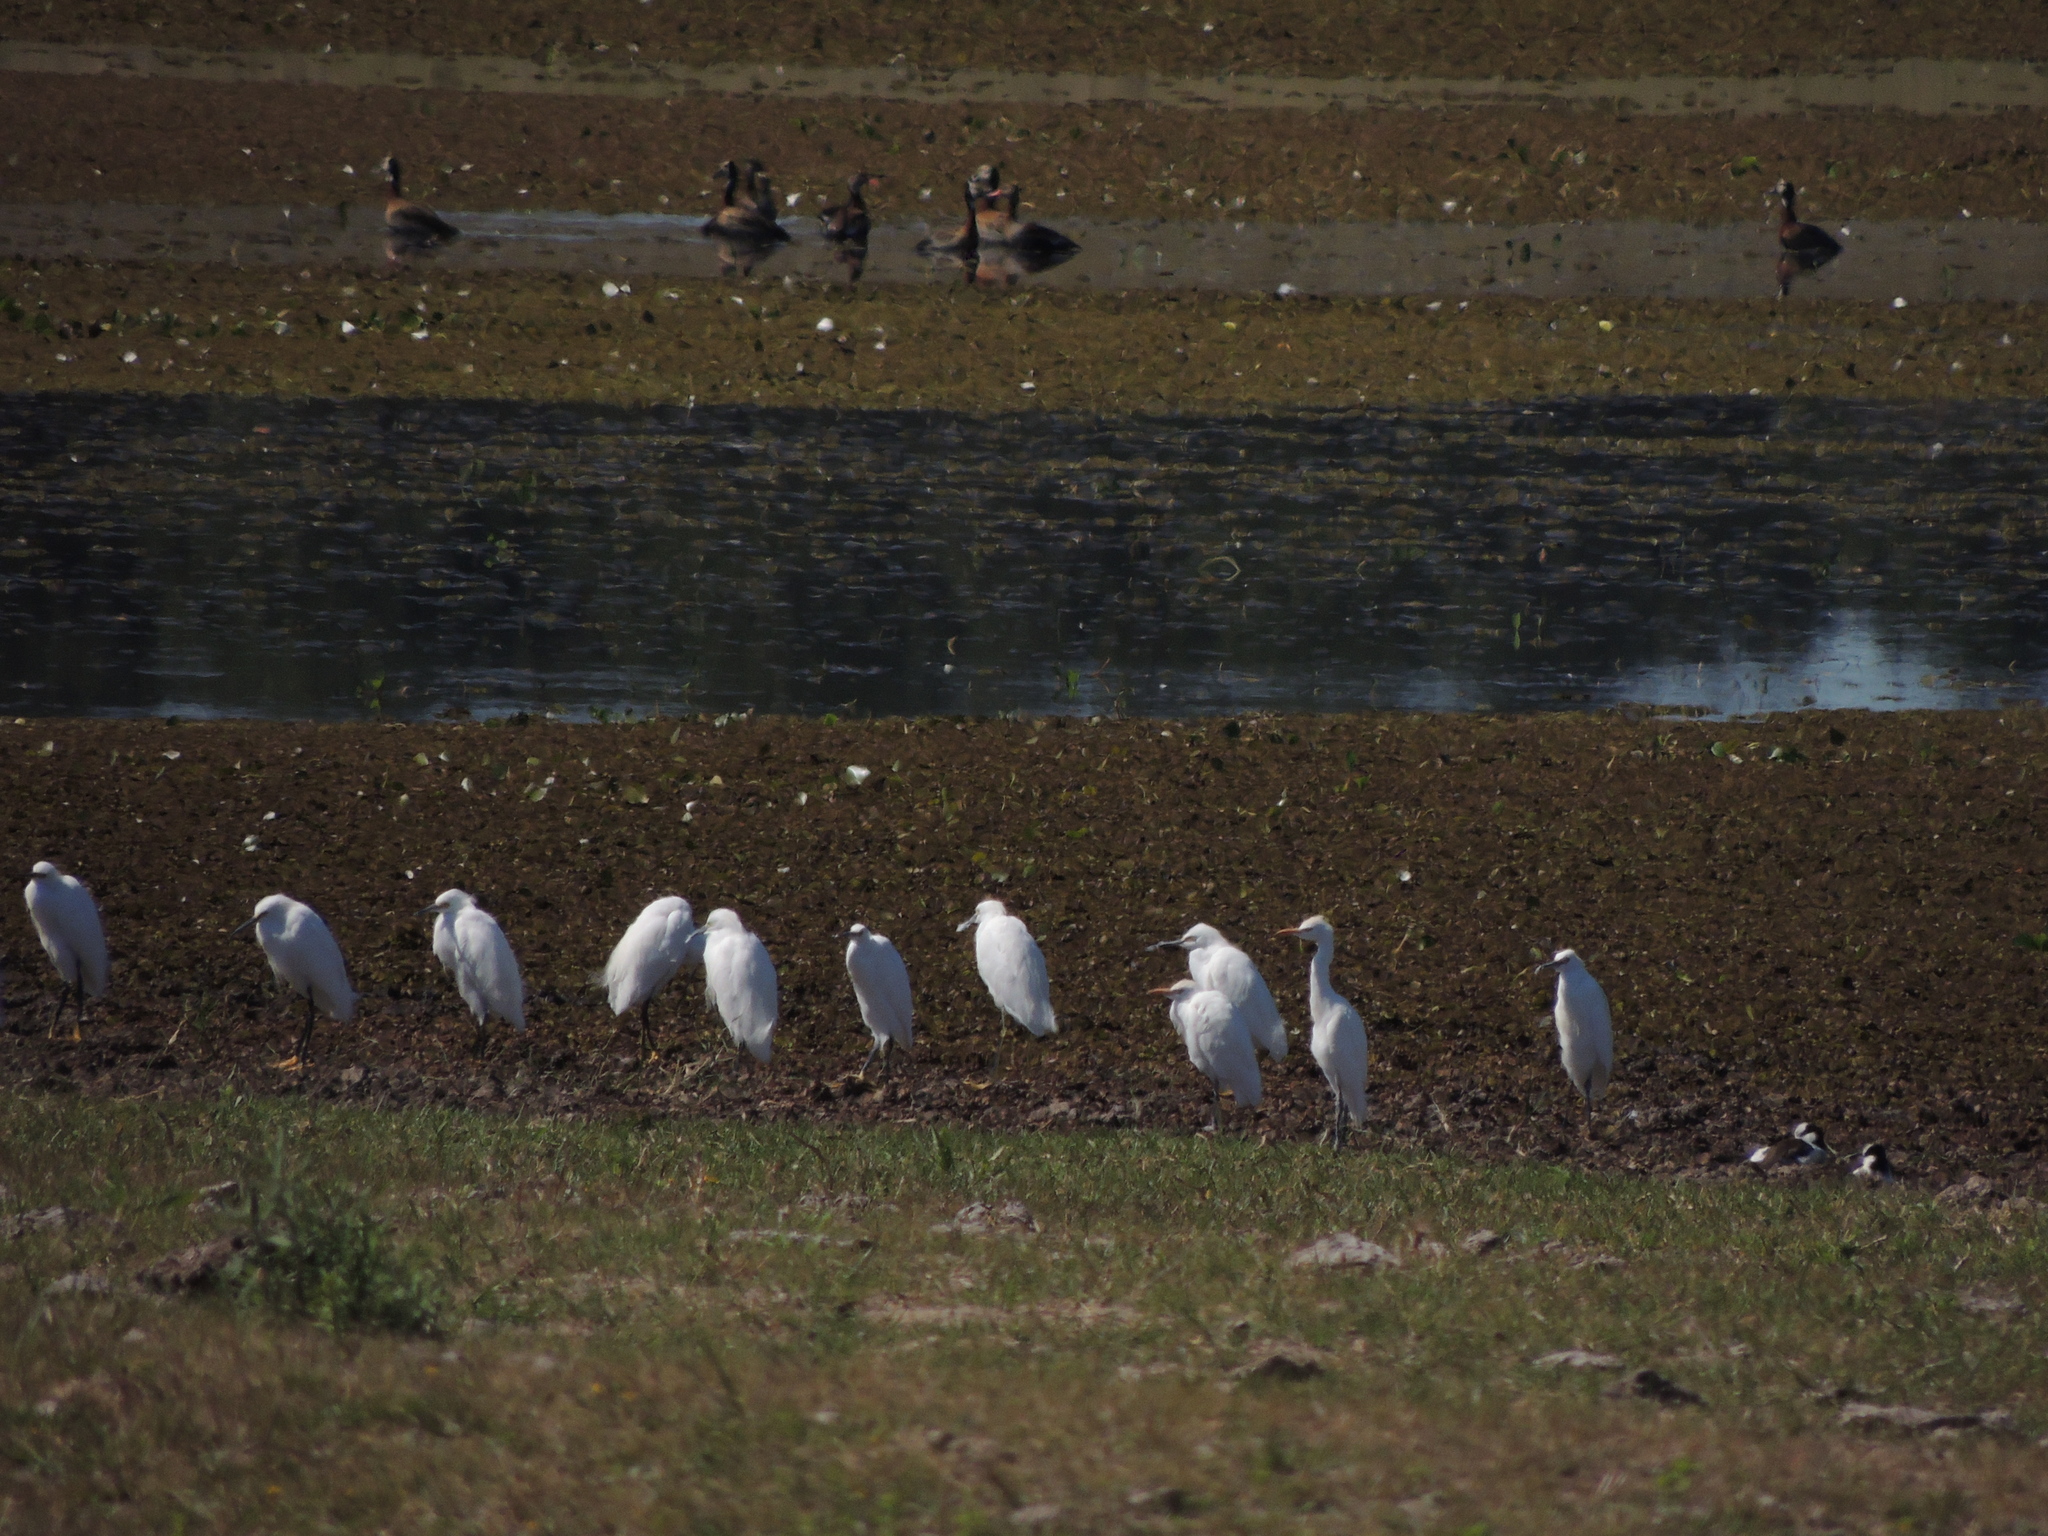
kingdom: Animalia
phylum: Chordata
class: Aves
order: Pelecaniformes
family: Ardeidae
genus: Egretta
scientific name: Egretta thula
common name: Snowy egret
